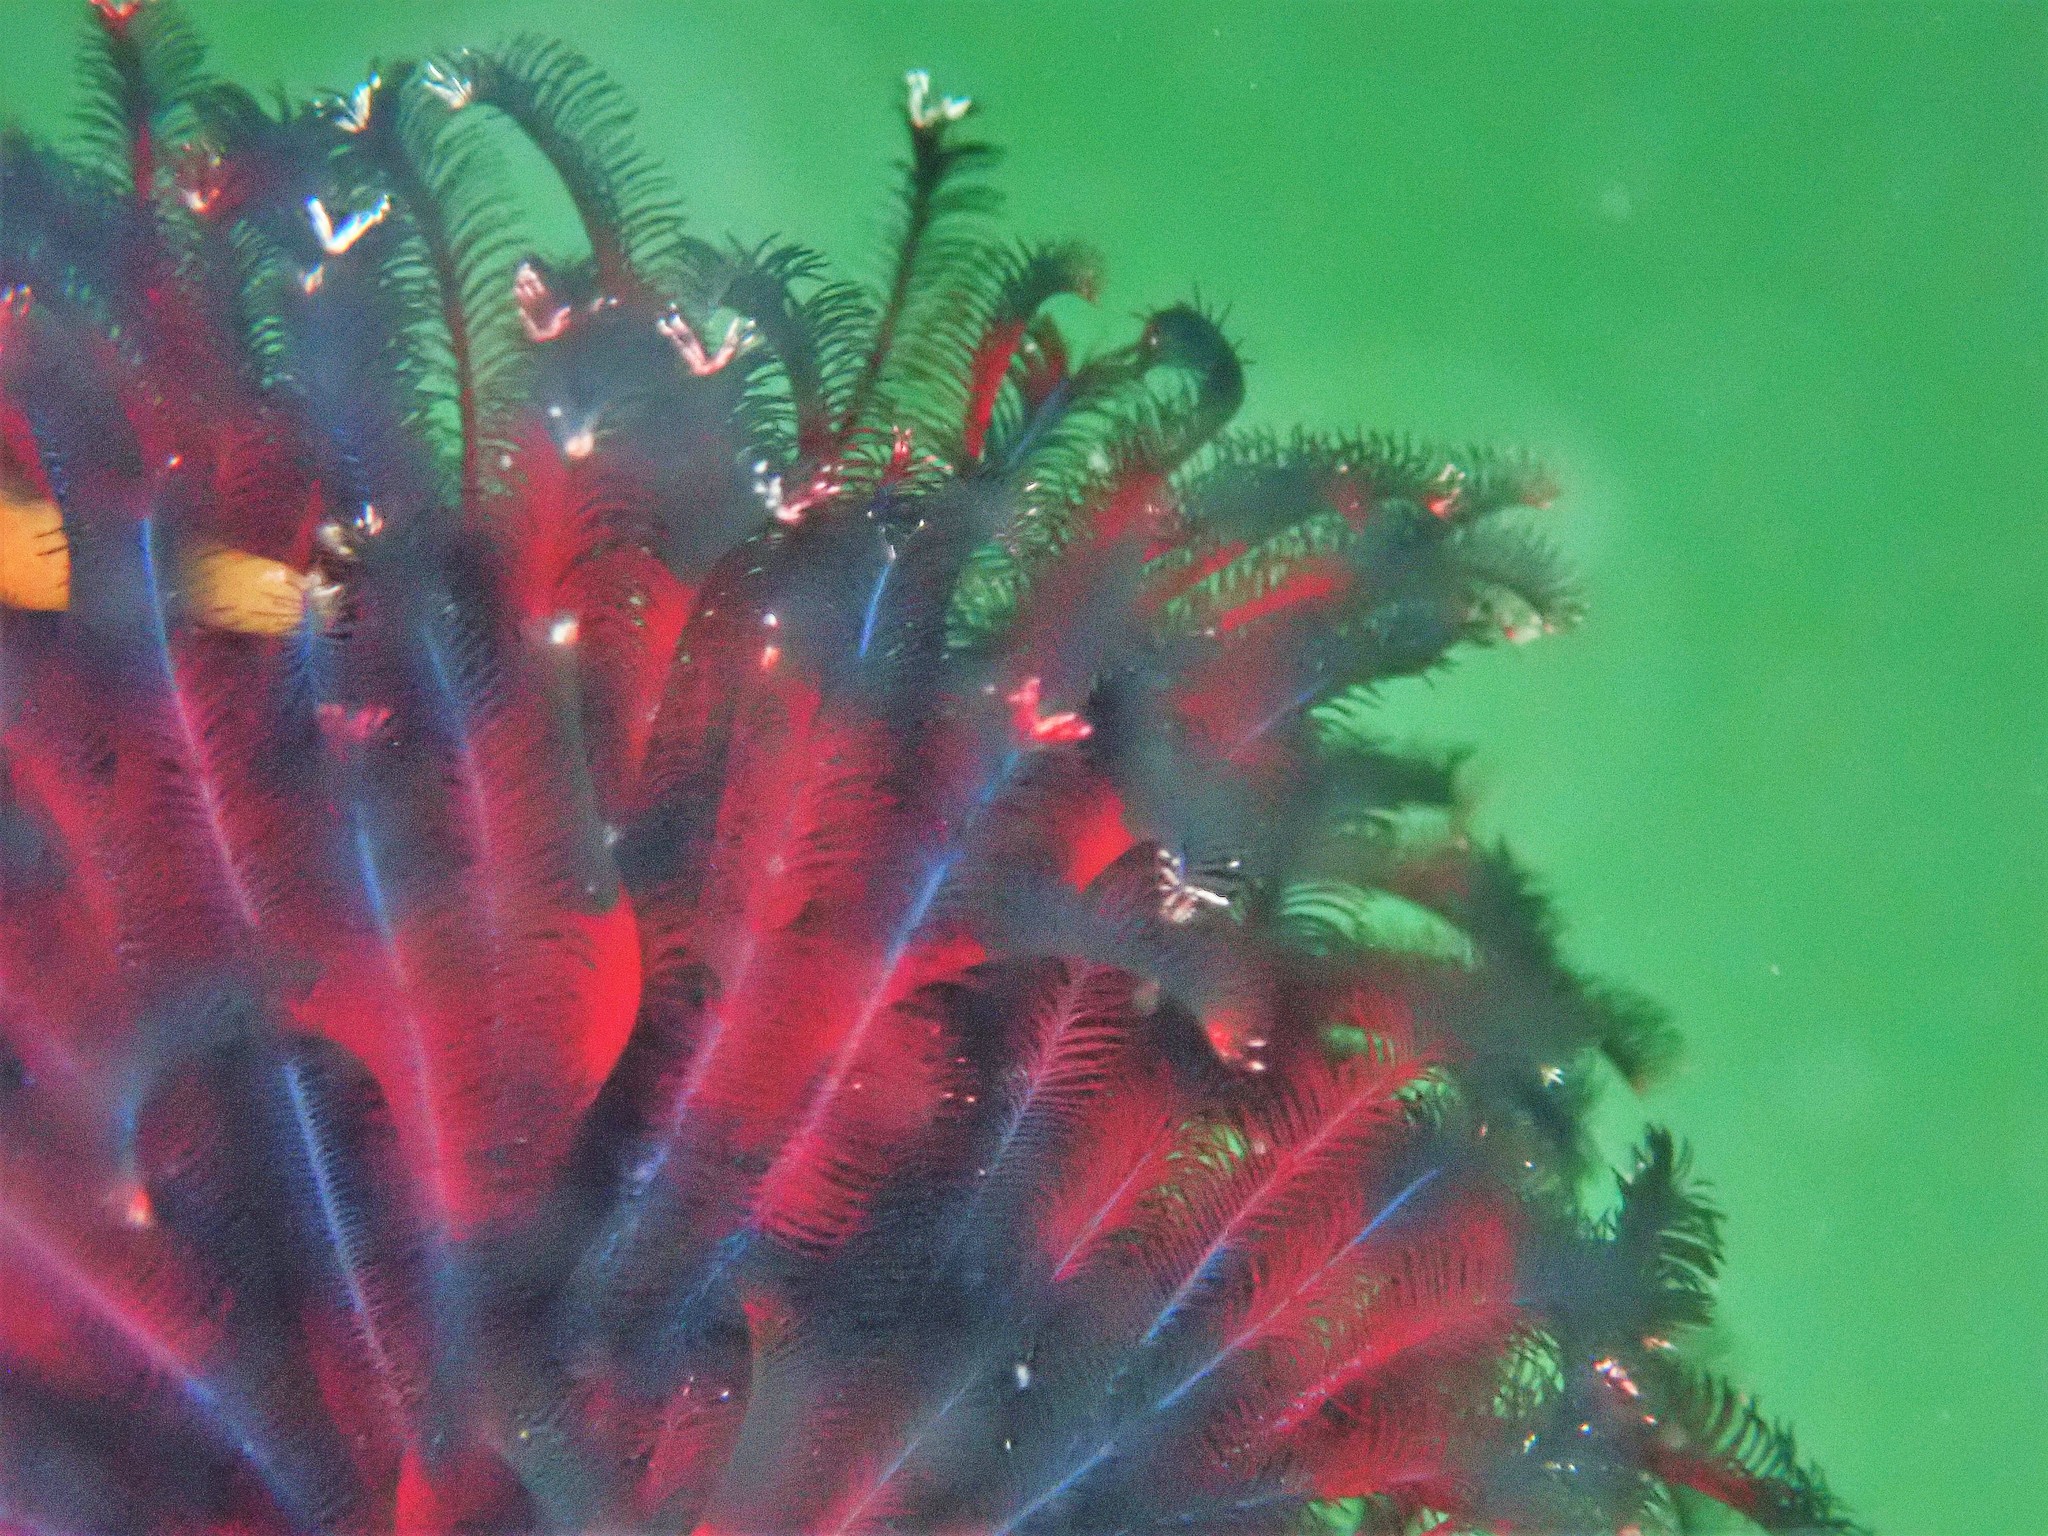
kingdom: Animalia
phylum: Annelida
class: Polychaeta
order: Sabellida
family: Sabellidae
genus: Eudistylia
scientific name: Eudistylia vancouveri
